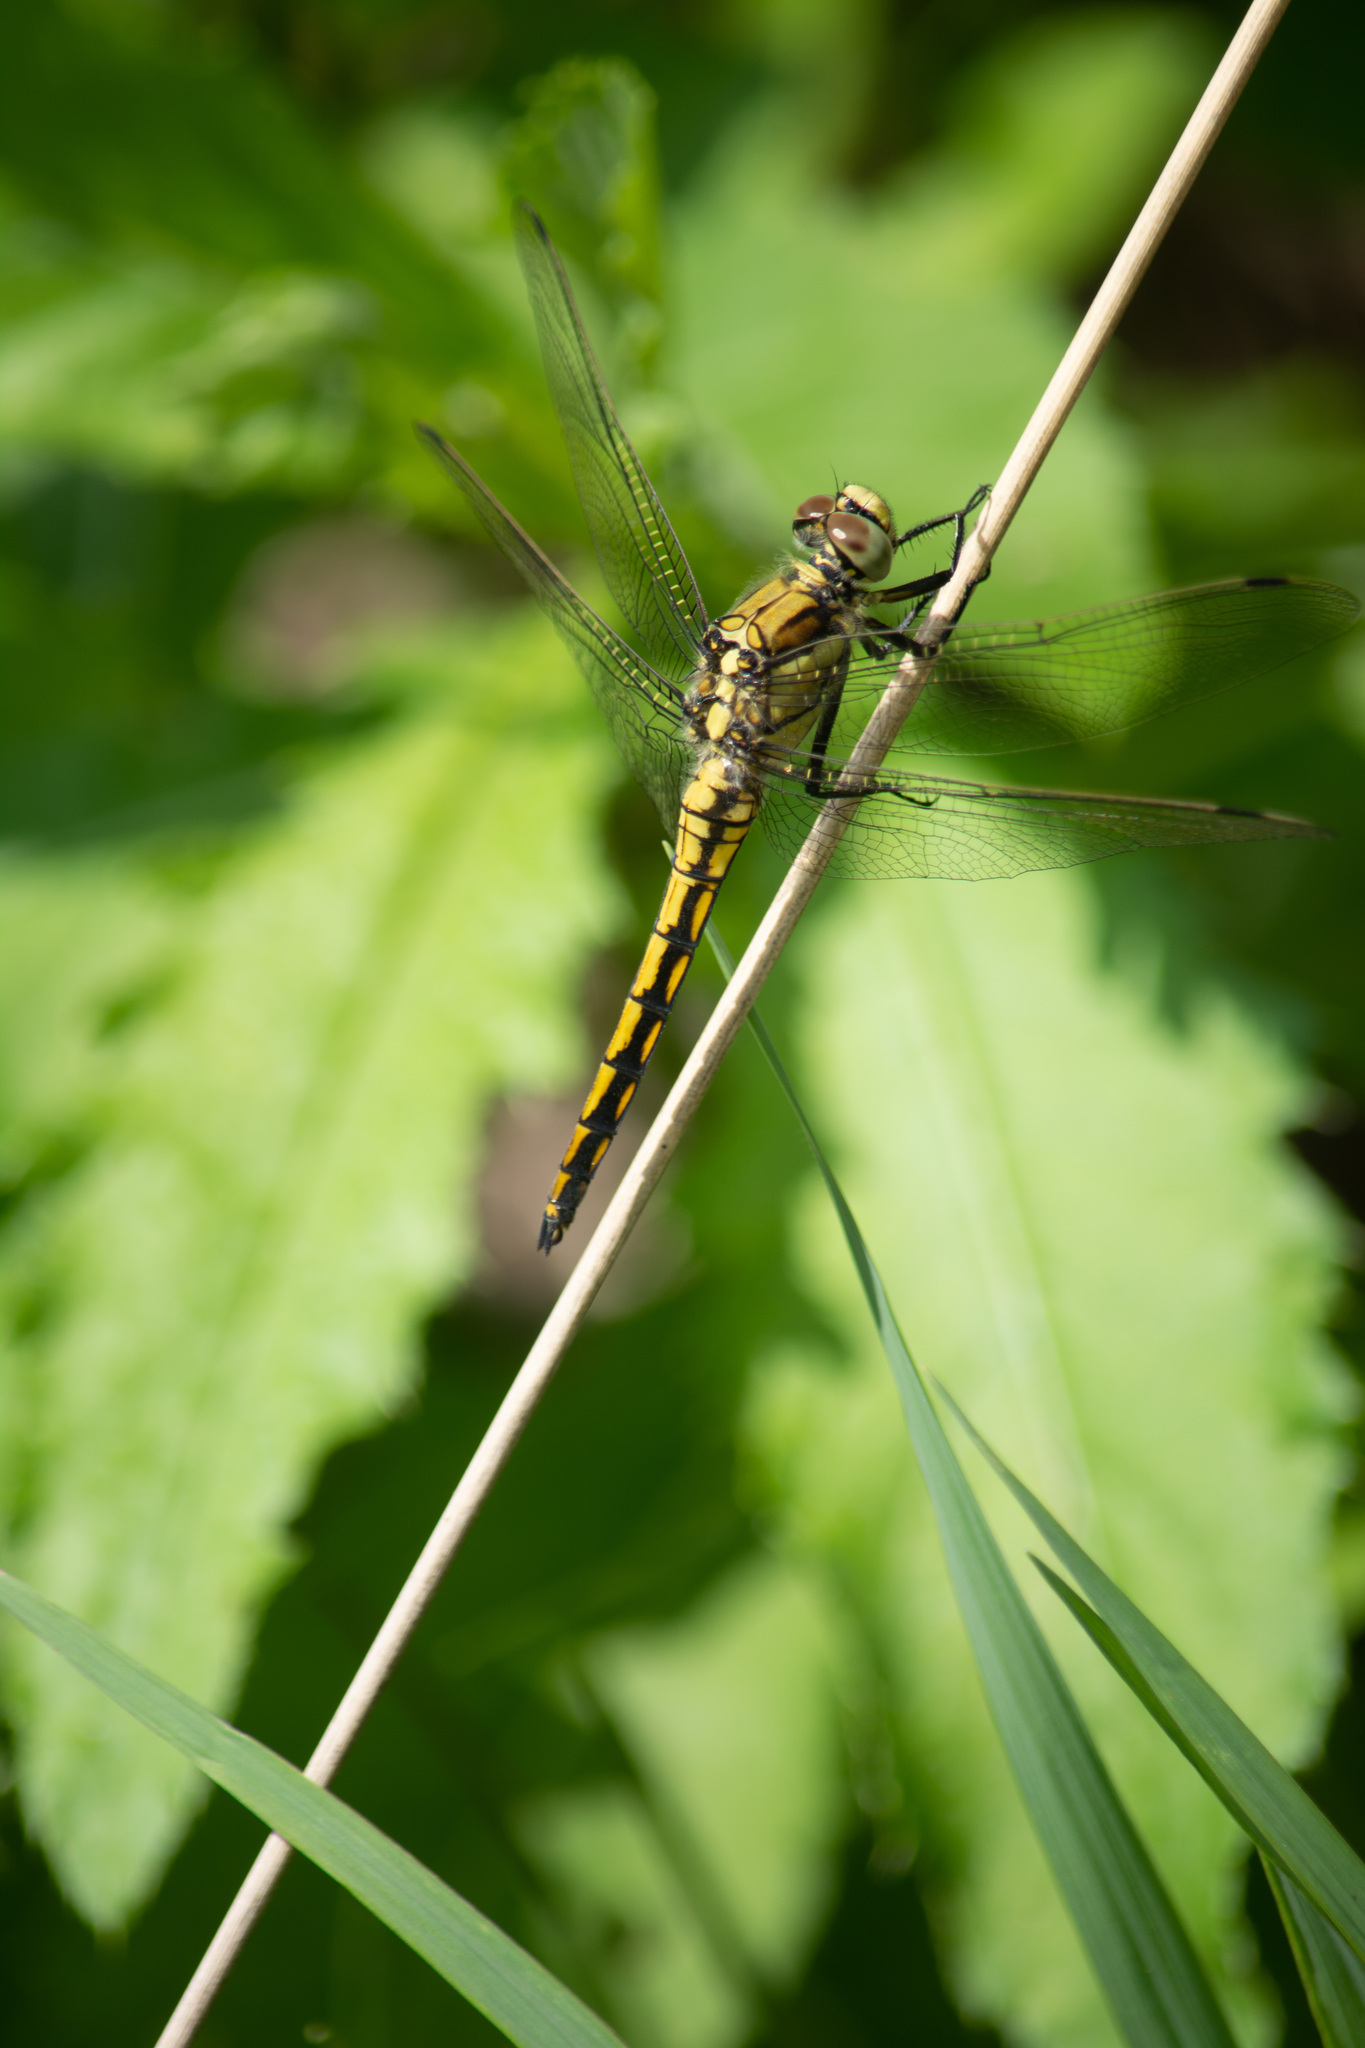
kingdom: Animalia
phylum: Arthropoda
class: Insecta
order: Odonata
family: Libellulidae
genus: Orthetrum
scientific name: Orthetrum cancellatum
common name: Black-tailed skimmer
